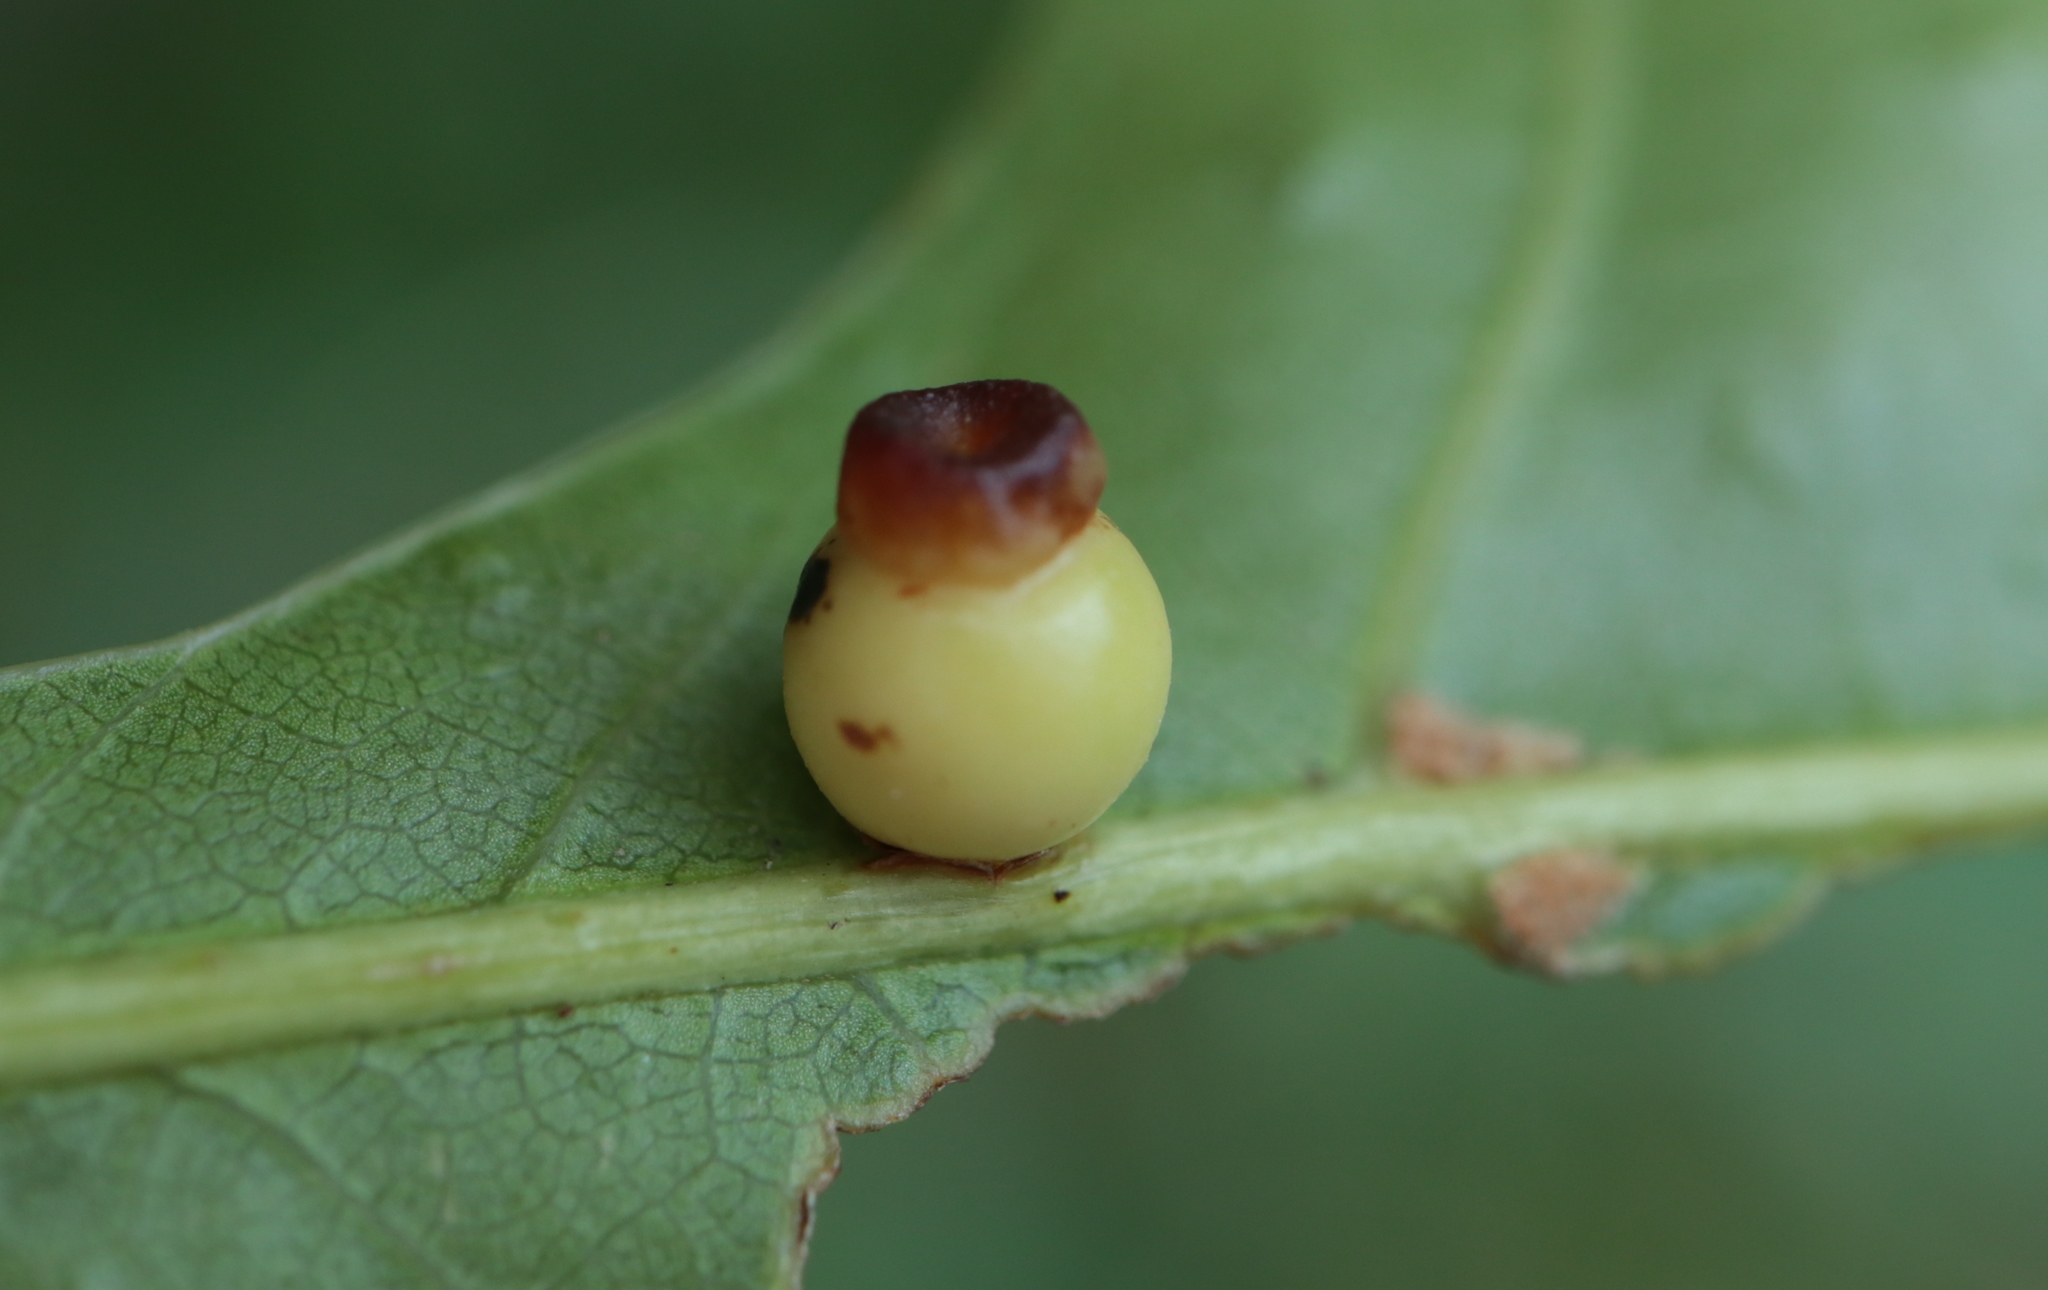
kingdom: Animalia
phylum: Arthropoda
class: Insecta
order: Hymenoptera
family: Cynipidae
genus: Kokkocynips
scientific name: Kokkocynips rileyi
